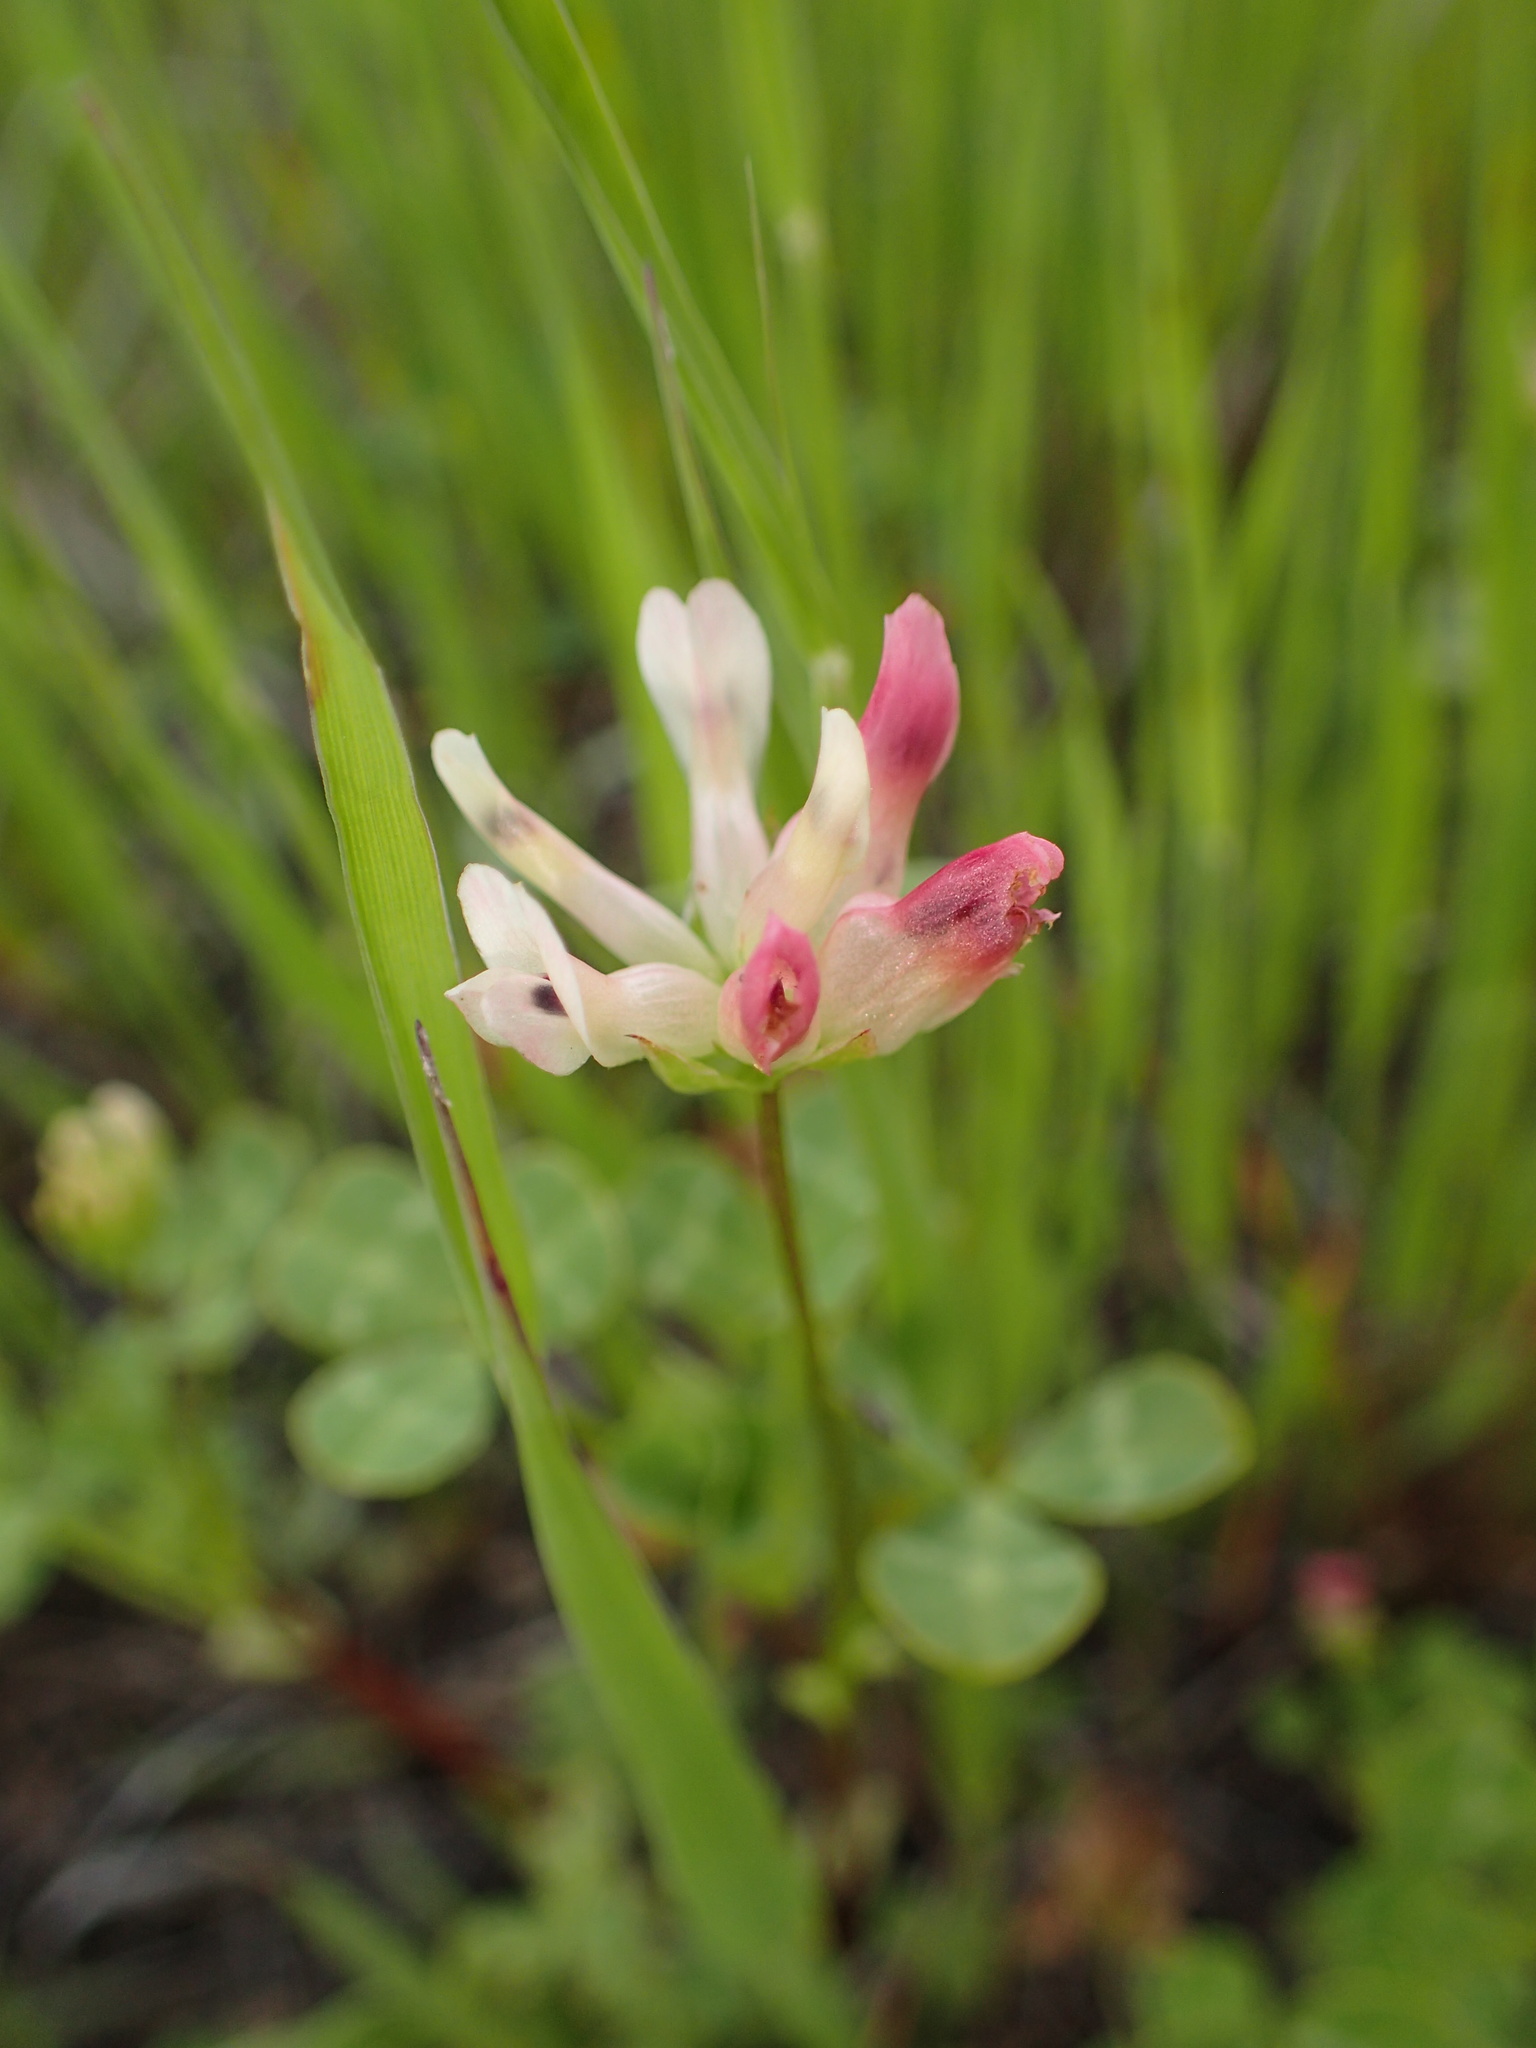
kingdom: Plantae
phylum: Tracheophyta
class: Magnoliopsida
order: Fabales
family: Fabaceae
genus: Trifolium
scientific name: Trifolium fucatum
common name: Puff clover
